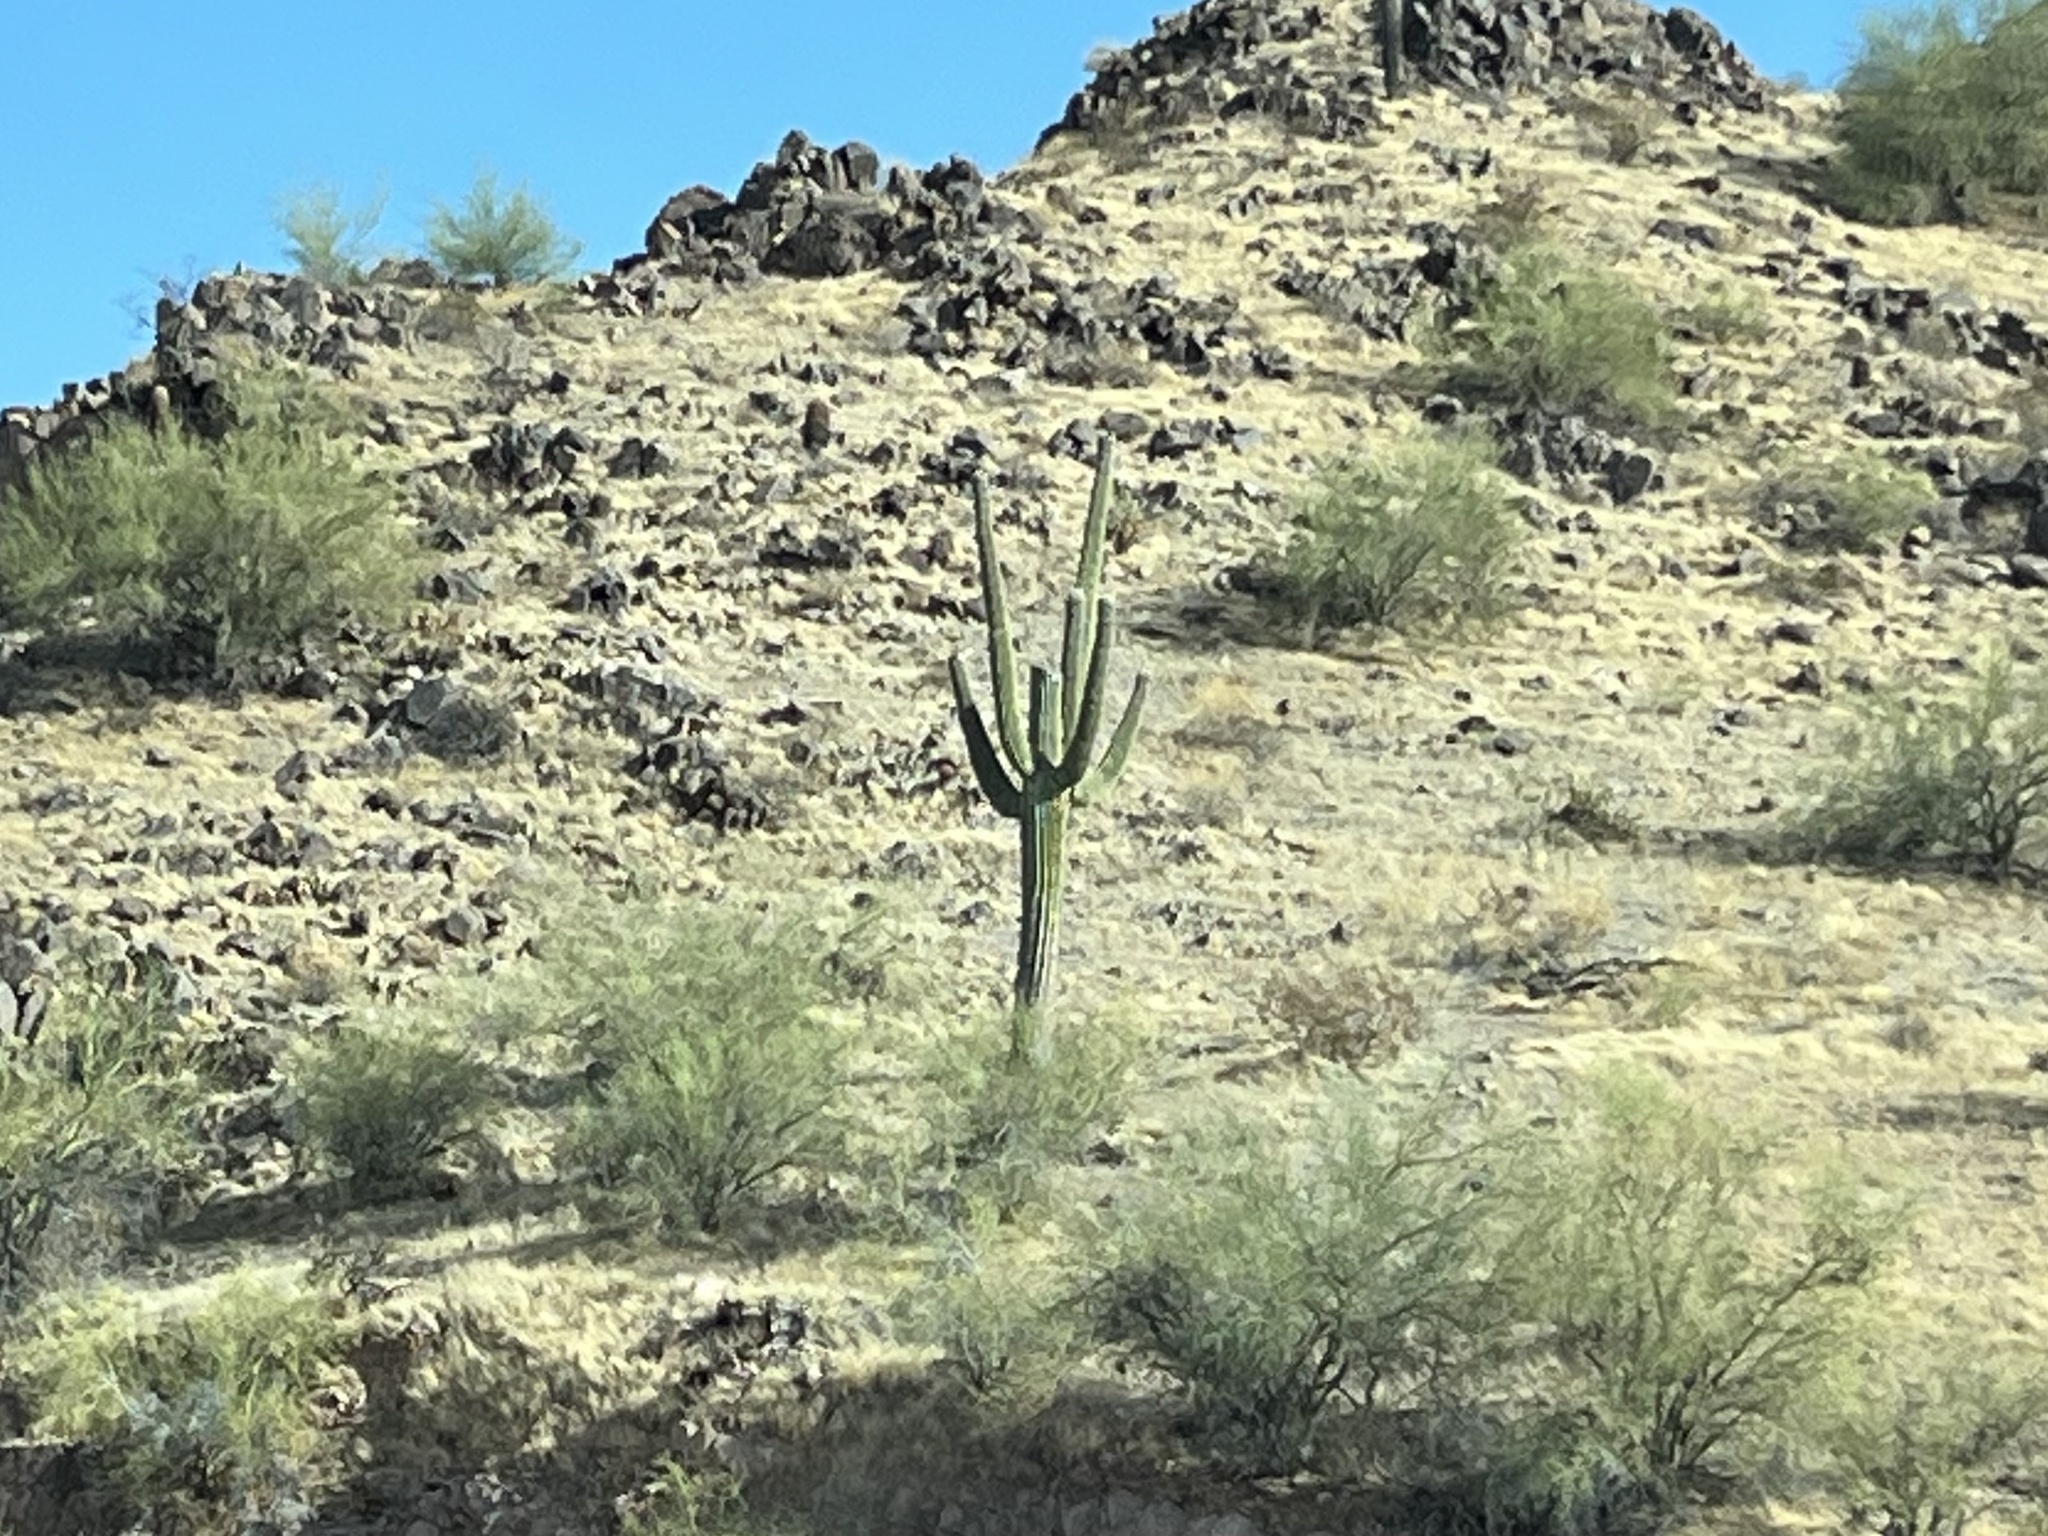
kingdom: Plantae
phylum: Tracheophyta
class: Magnoliopsida
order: Caryophyllales
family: Cactaceae
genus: Carnegiea
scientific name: Carnegiea gigantea
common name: Saguaro
